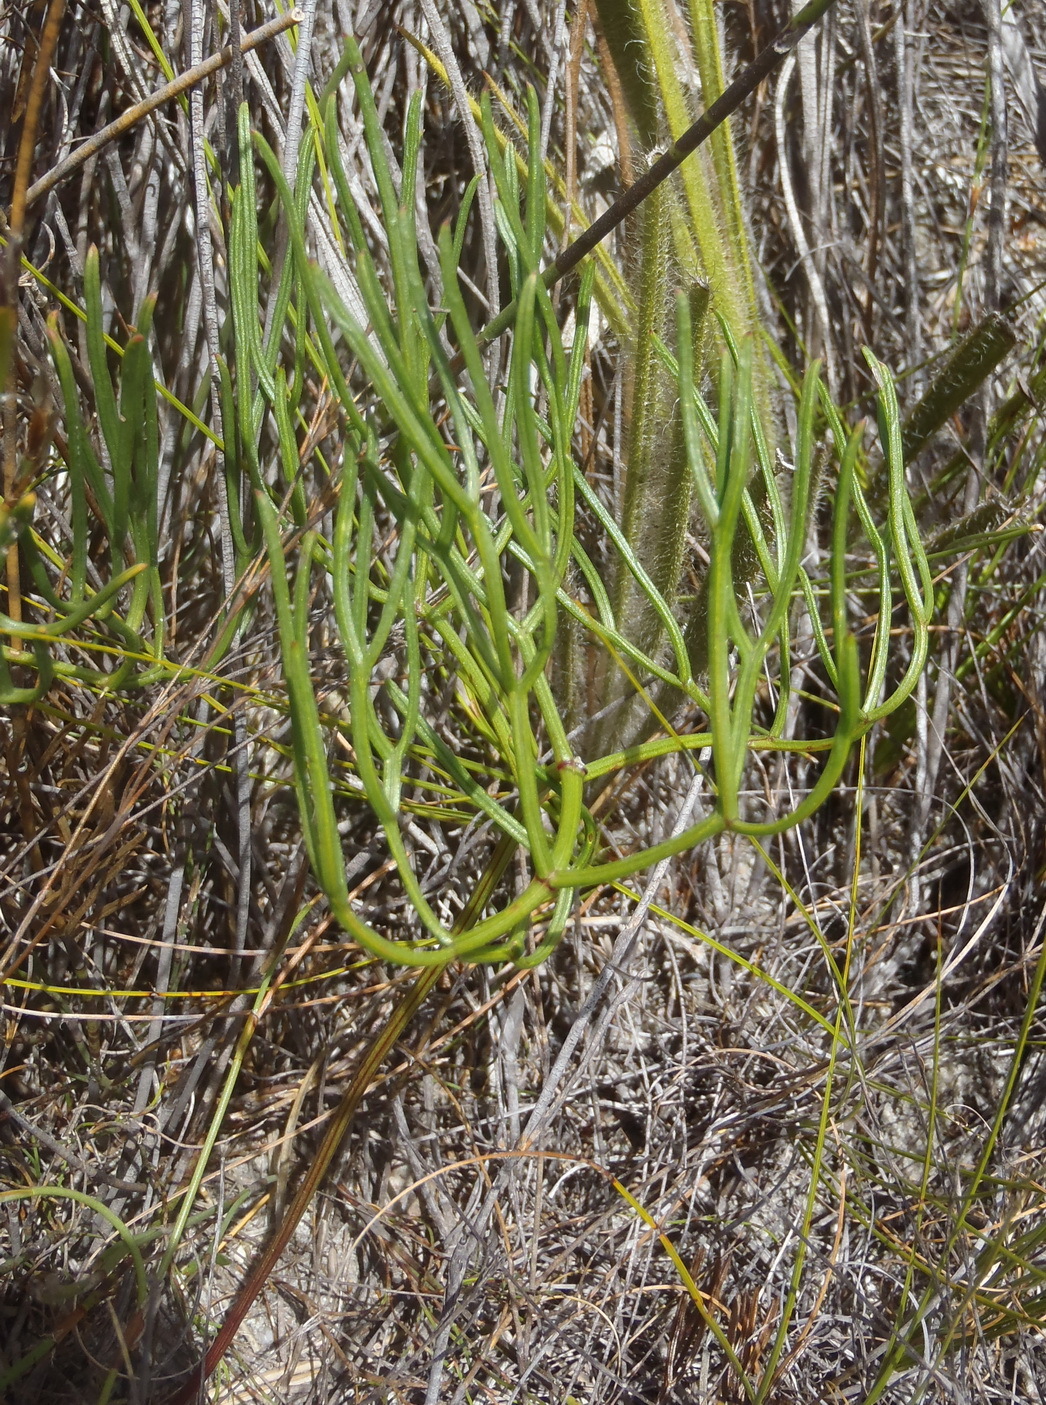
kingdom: Plantae
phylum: Tracheophyta
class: Magnoliopsida
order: Apiales
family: Apiaceae
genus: Nanobubon
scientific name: Nanobubon capillaceum
